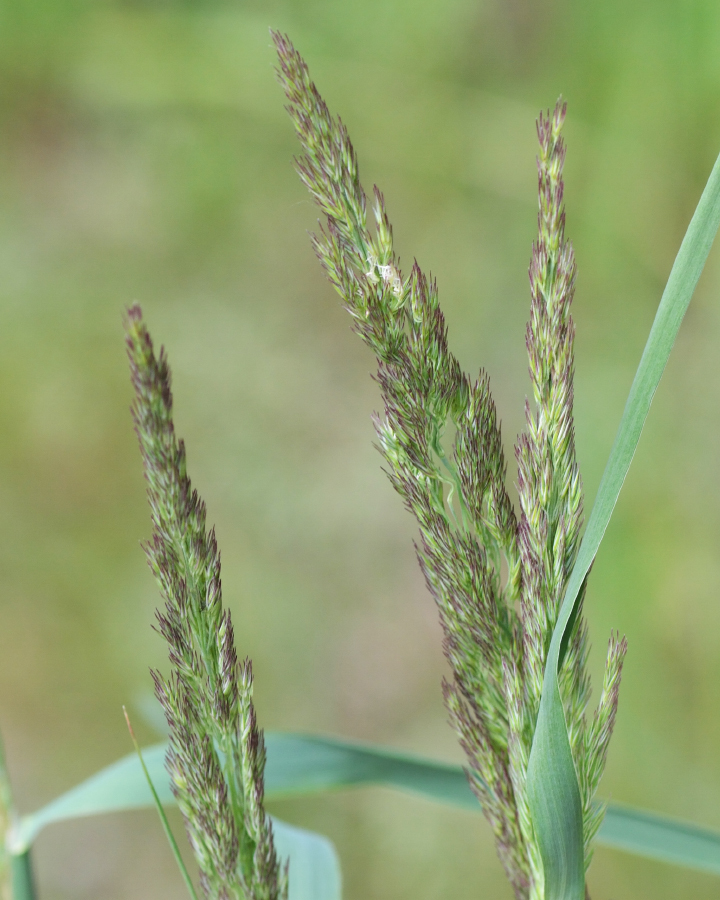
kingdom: Plantae
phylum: Tracheophyta
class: Liliopsida
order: Poales
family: Poaceae
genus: Calamagrostis
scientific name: Calamagrostis epigejos
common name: Wood small-reed
